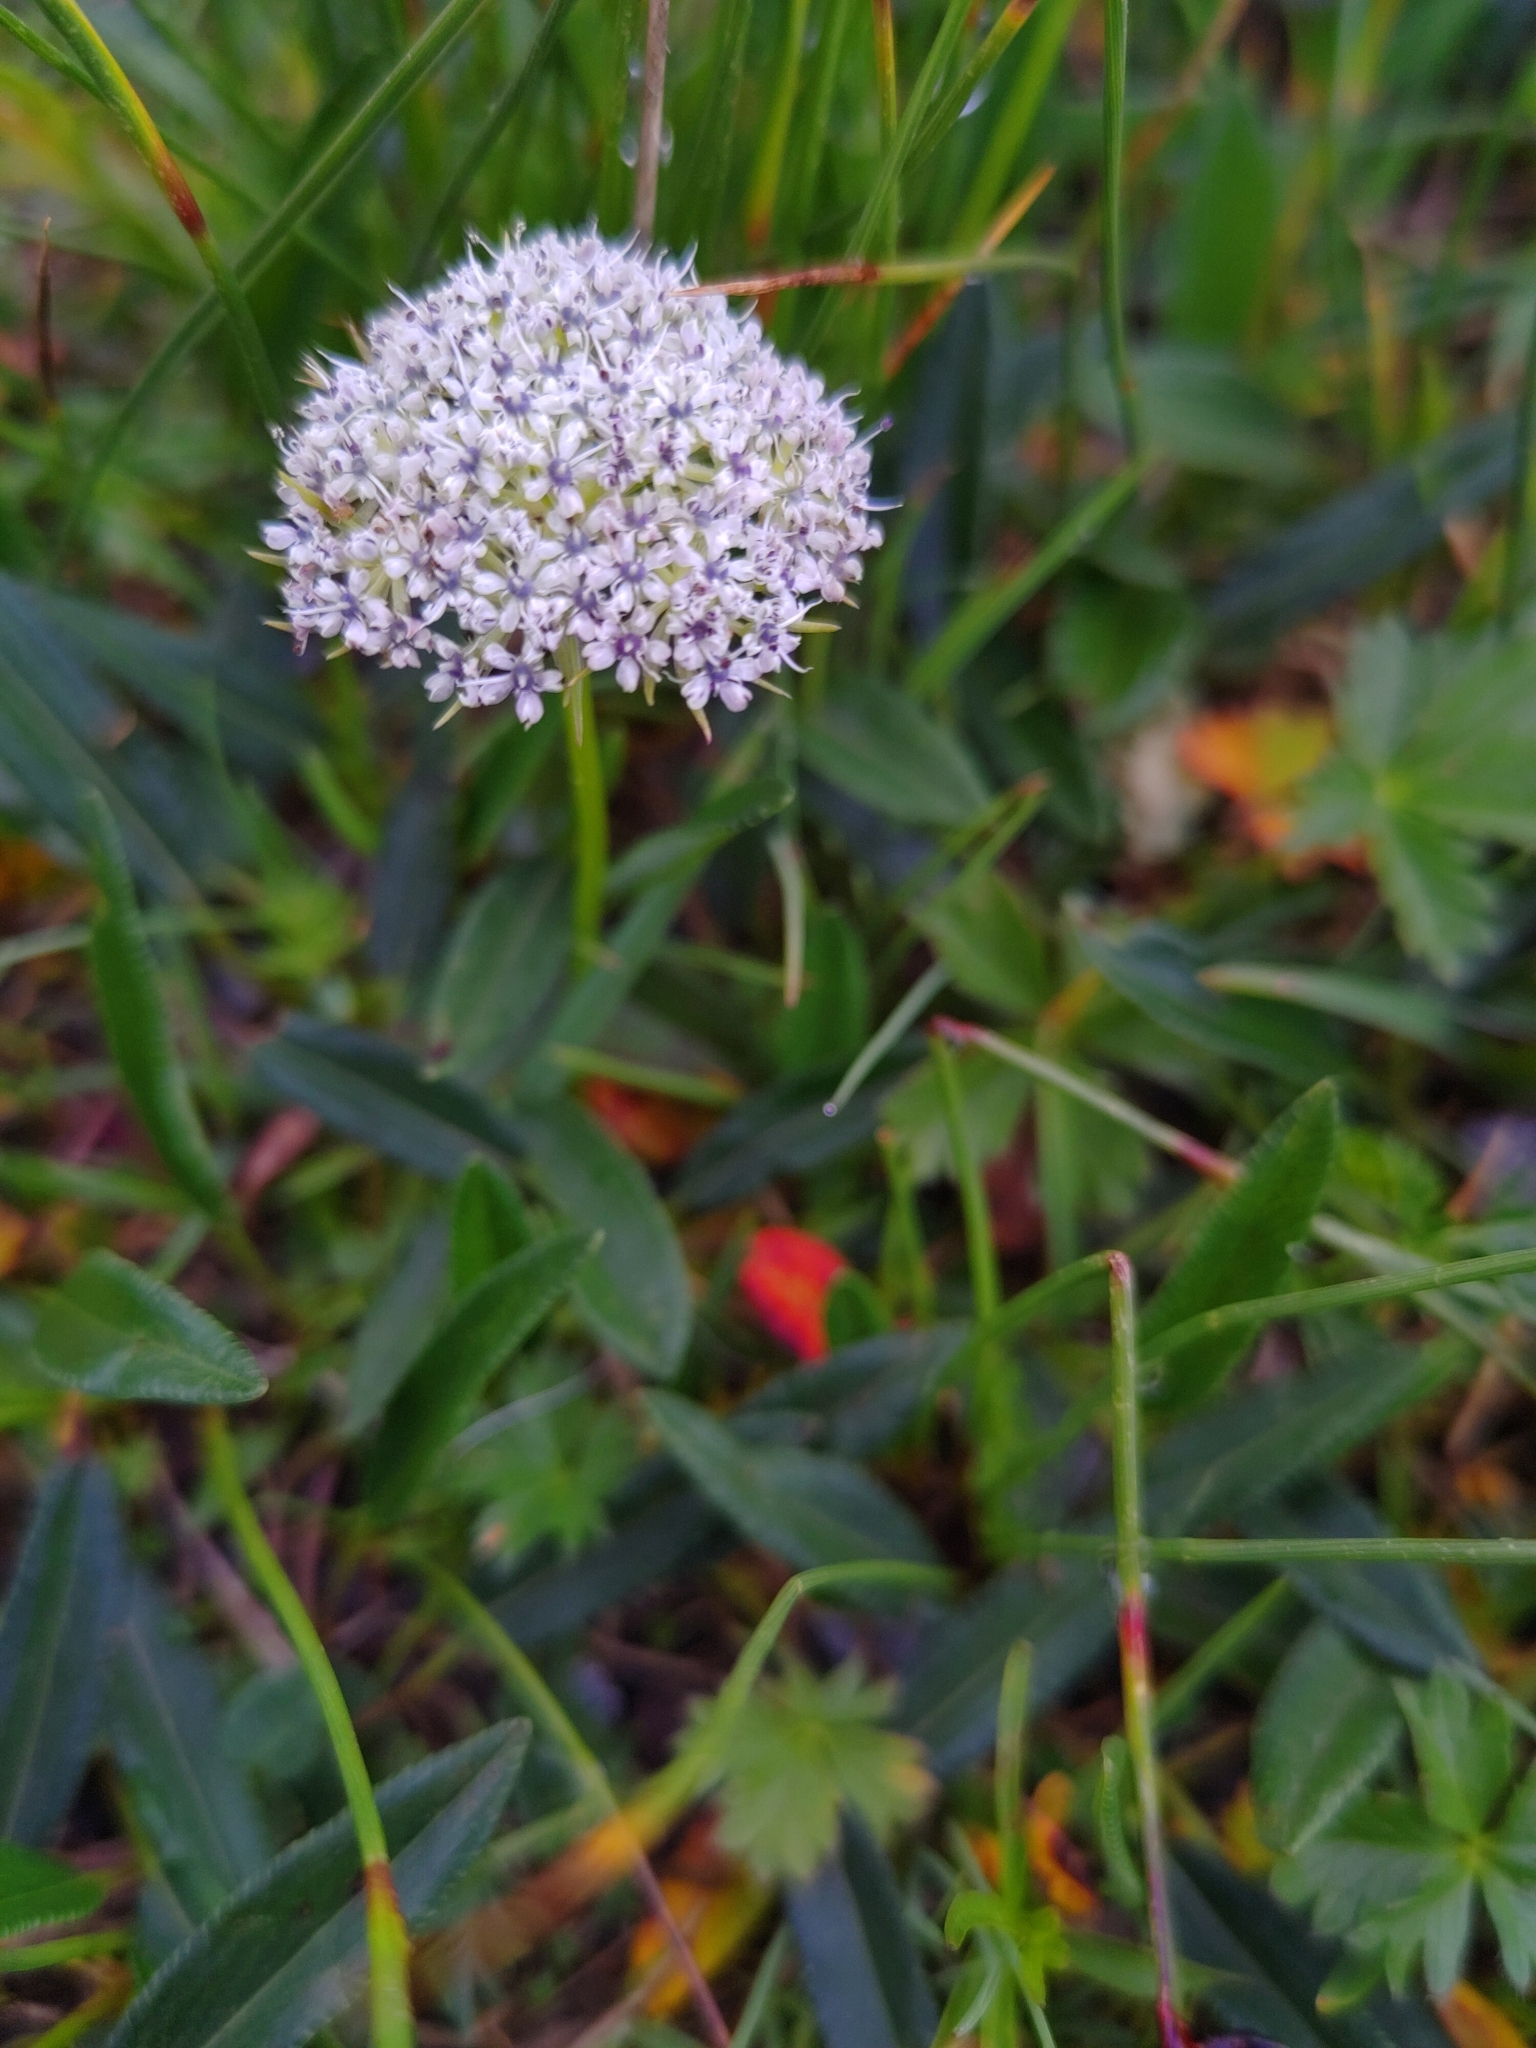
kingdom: Plantae
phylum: Tracheophyta
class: Magnoliopsida
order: Apiales
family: Apiaceae
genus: Pachypleurum
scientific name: Pachypleurum mutellinoides
